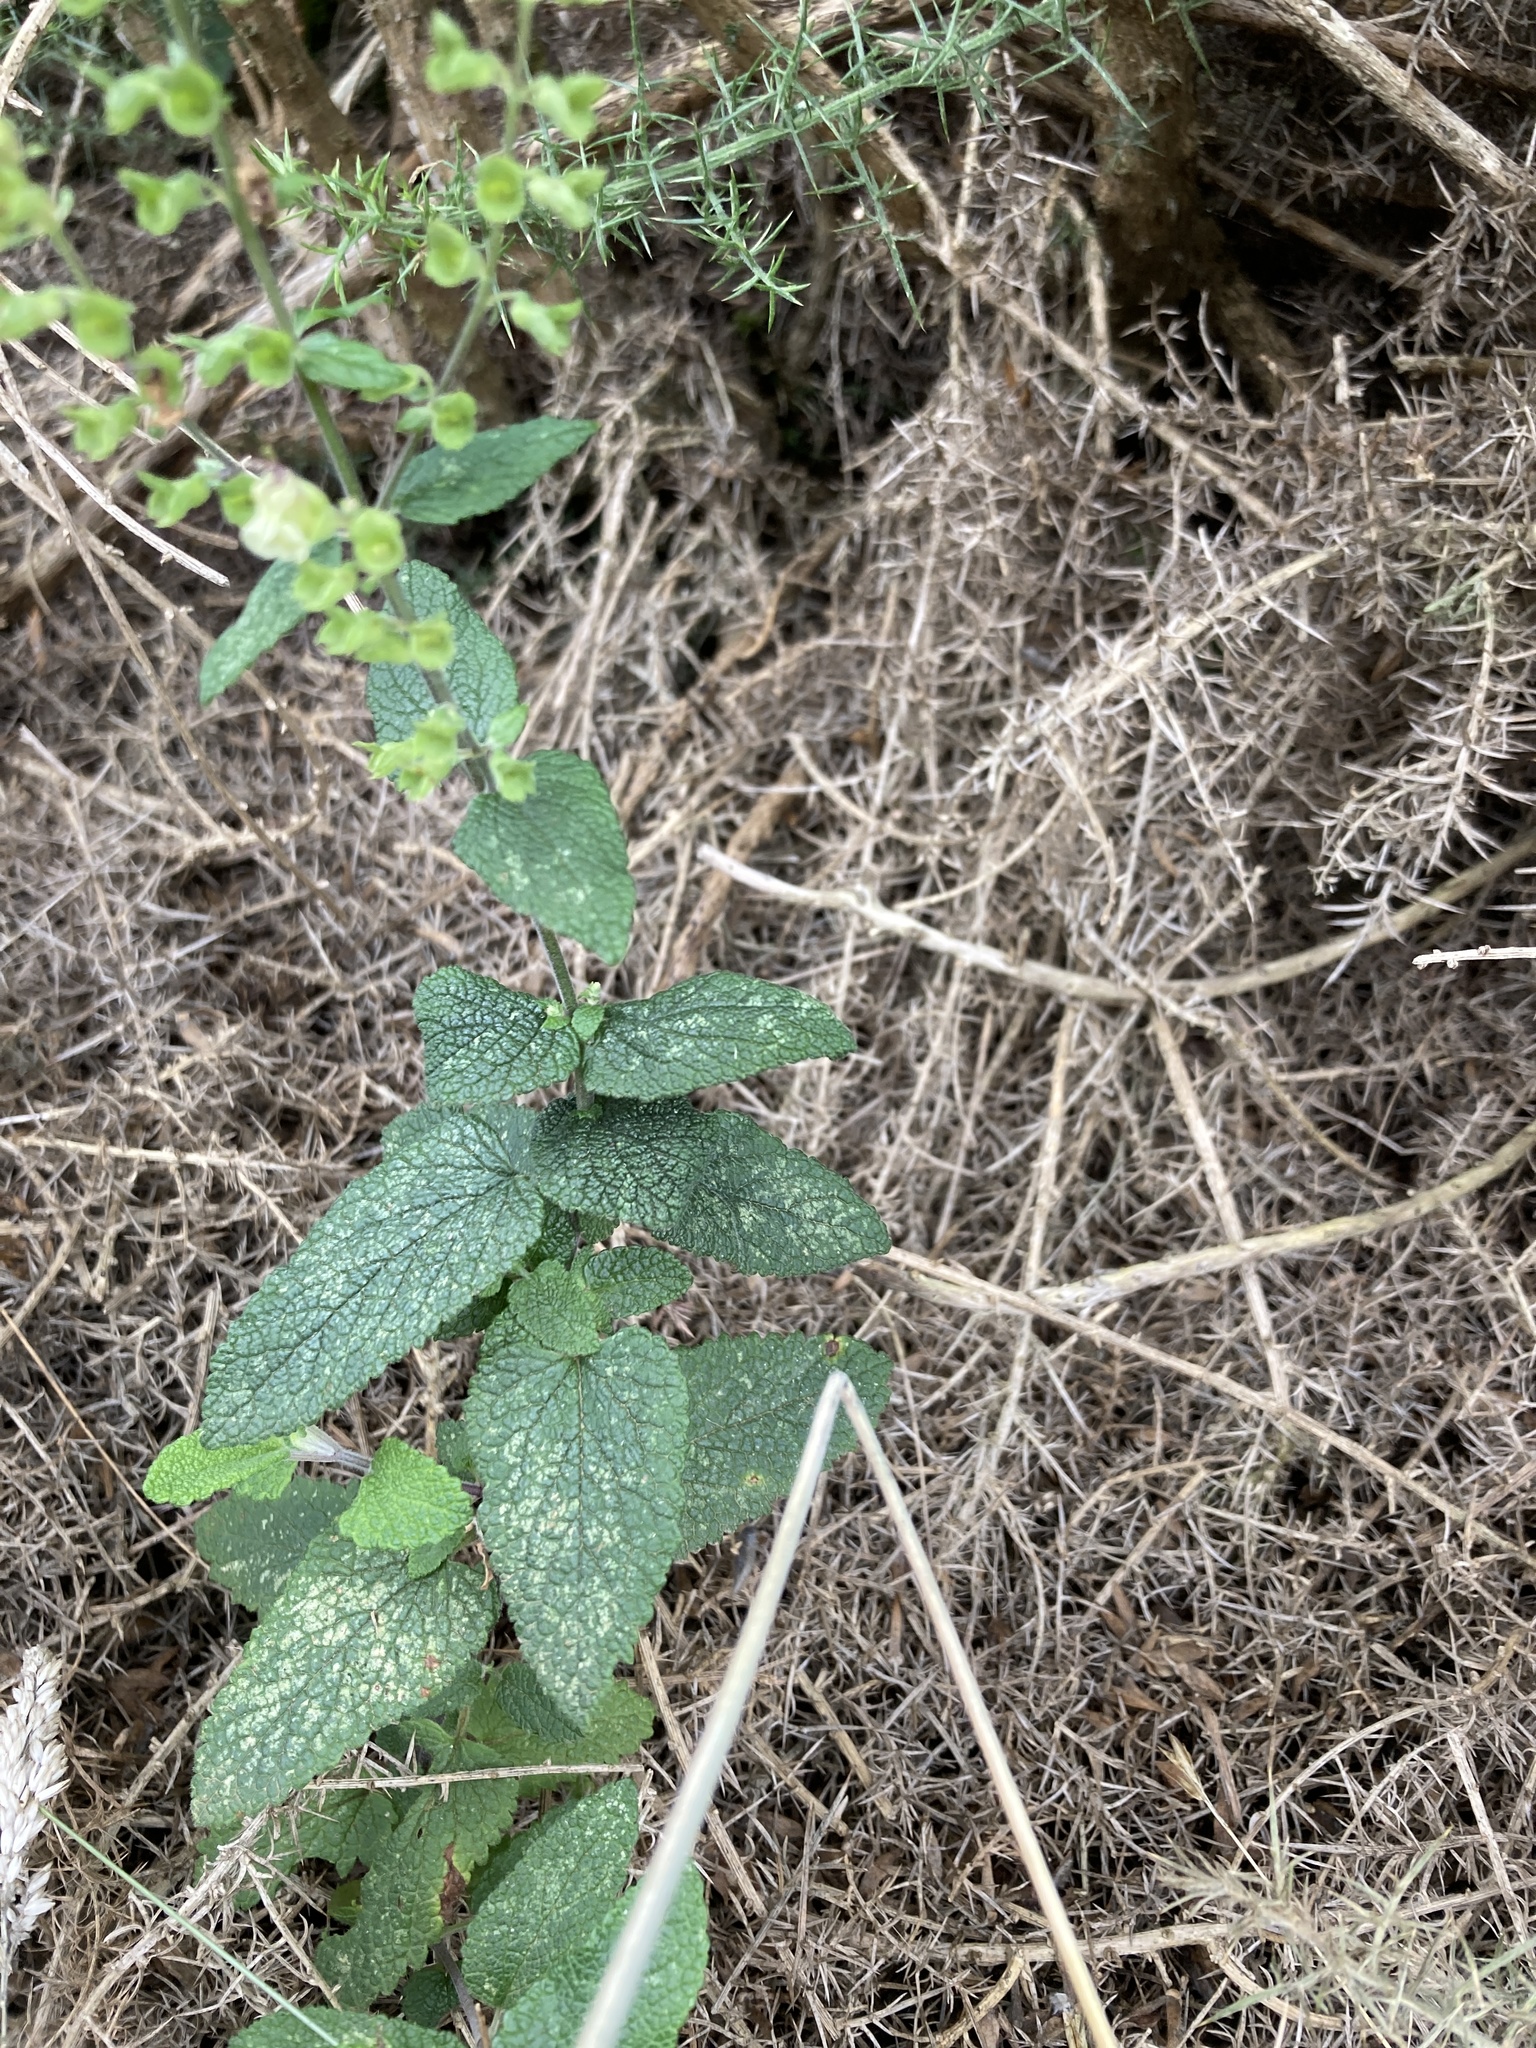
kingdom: Plantae
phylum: Tracheophyta
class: Magnoliopsida
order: Lamiales
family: Lamiaceae
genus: Teucrium
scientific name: Teucrium scorodonia
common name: Woodland germander
